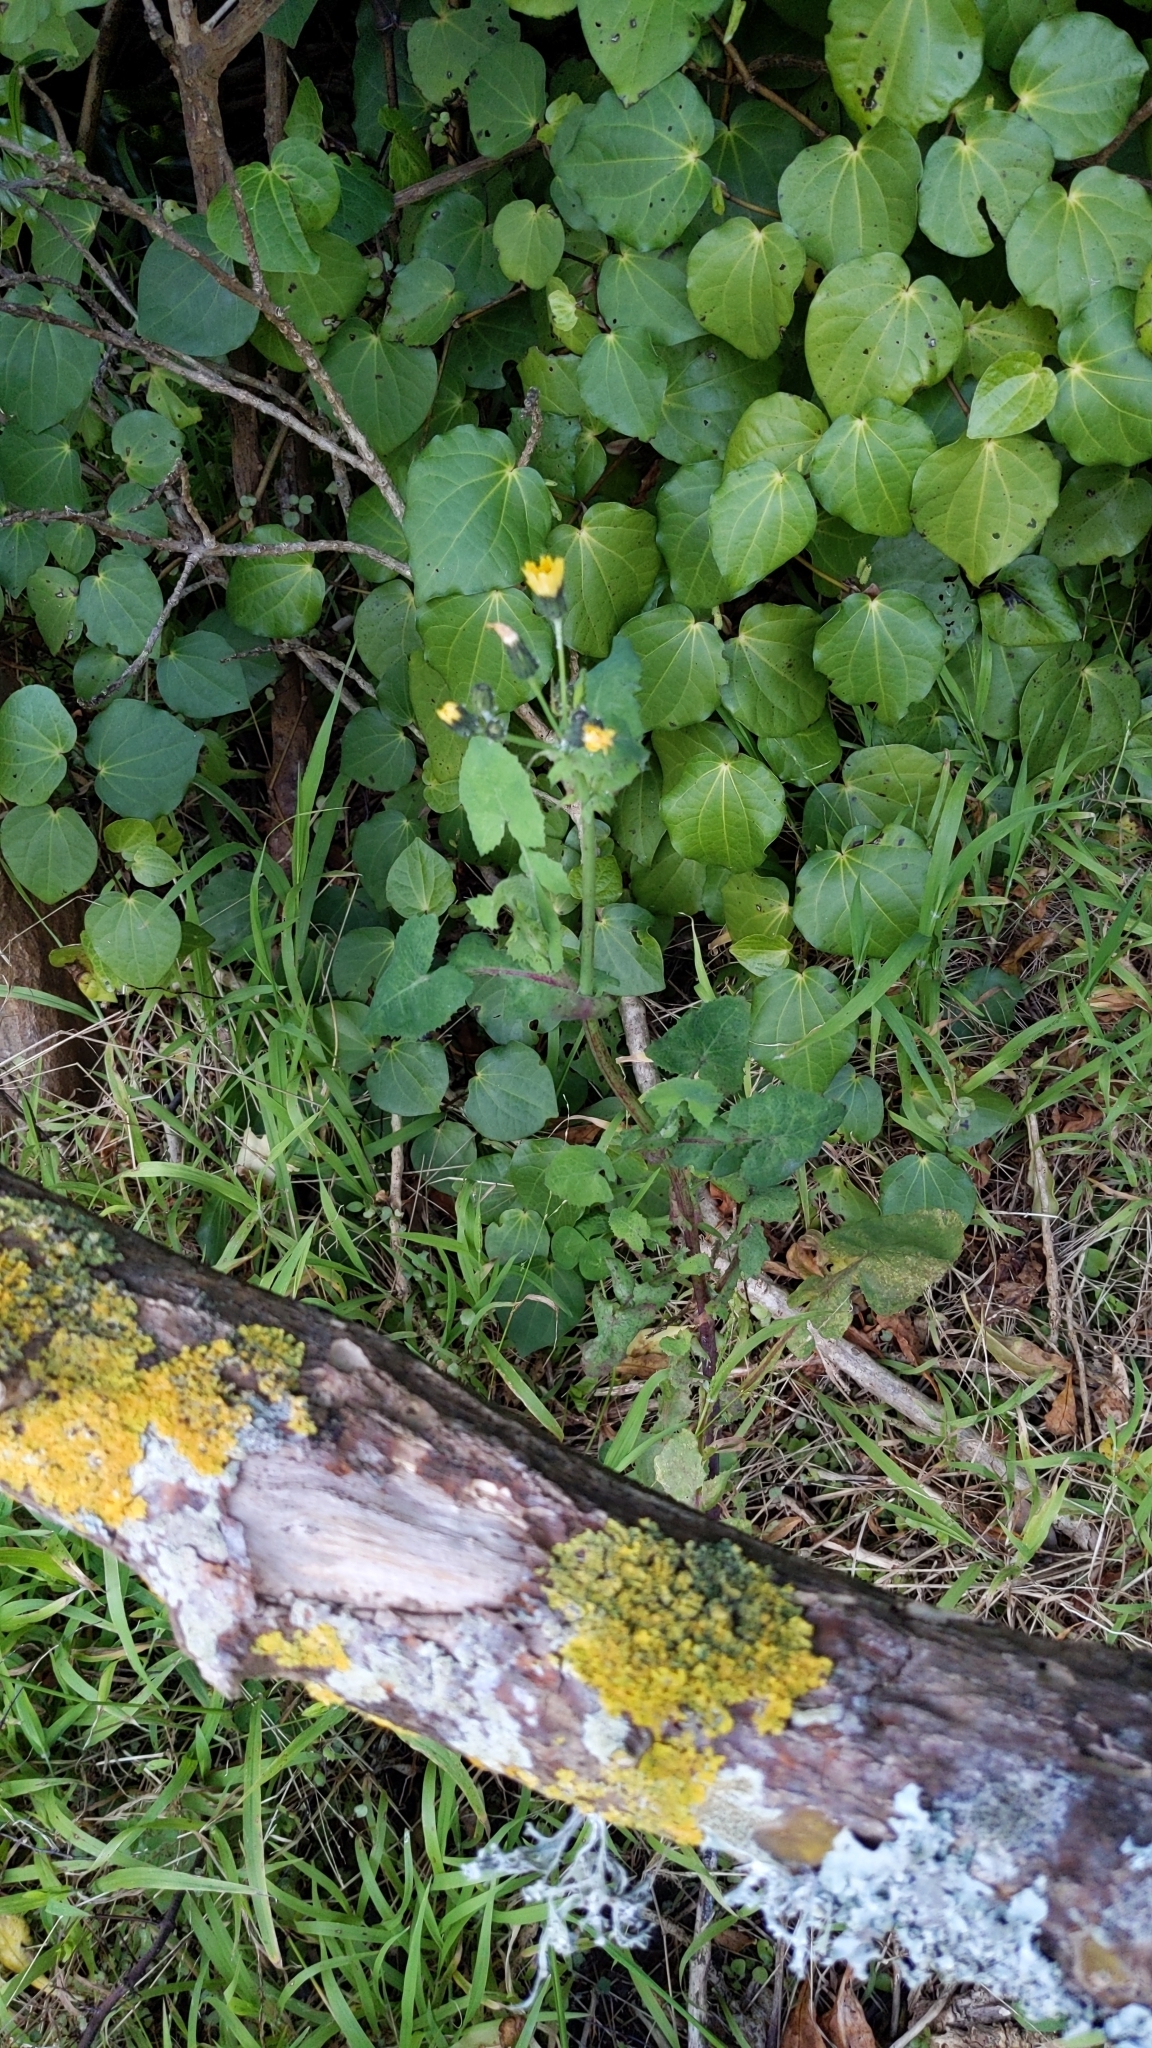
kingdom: Plantae
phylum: Tracheophyta
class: Magnoliopsida
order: Asterales
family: Asteraceae
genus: Sonchus
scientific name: Sonchus oleraceus
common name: Common sowthistle
